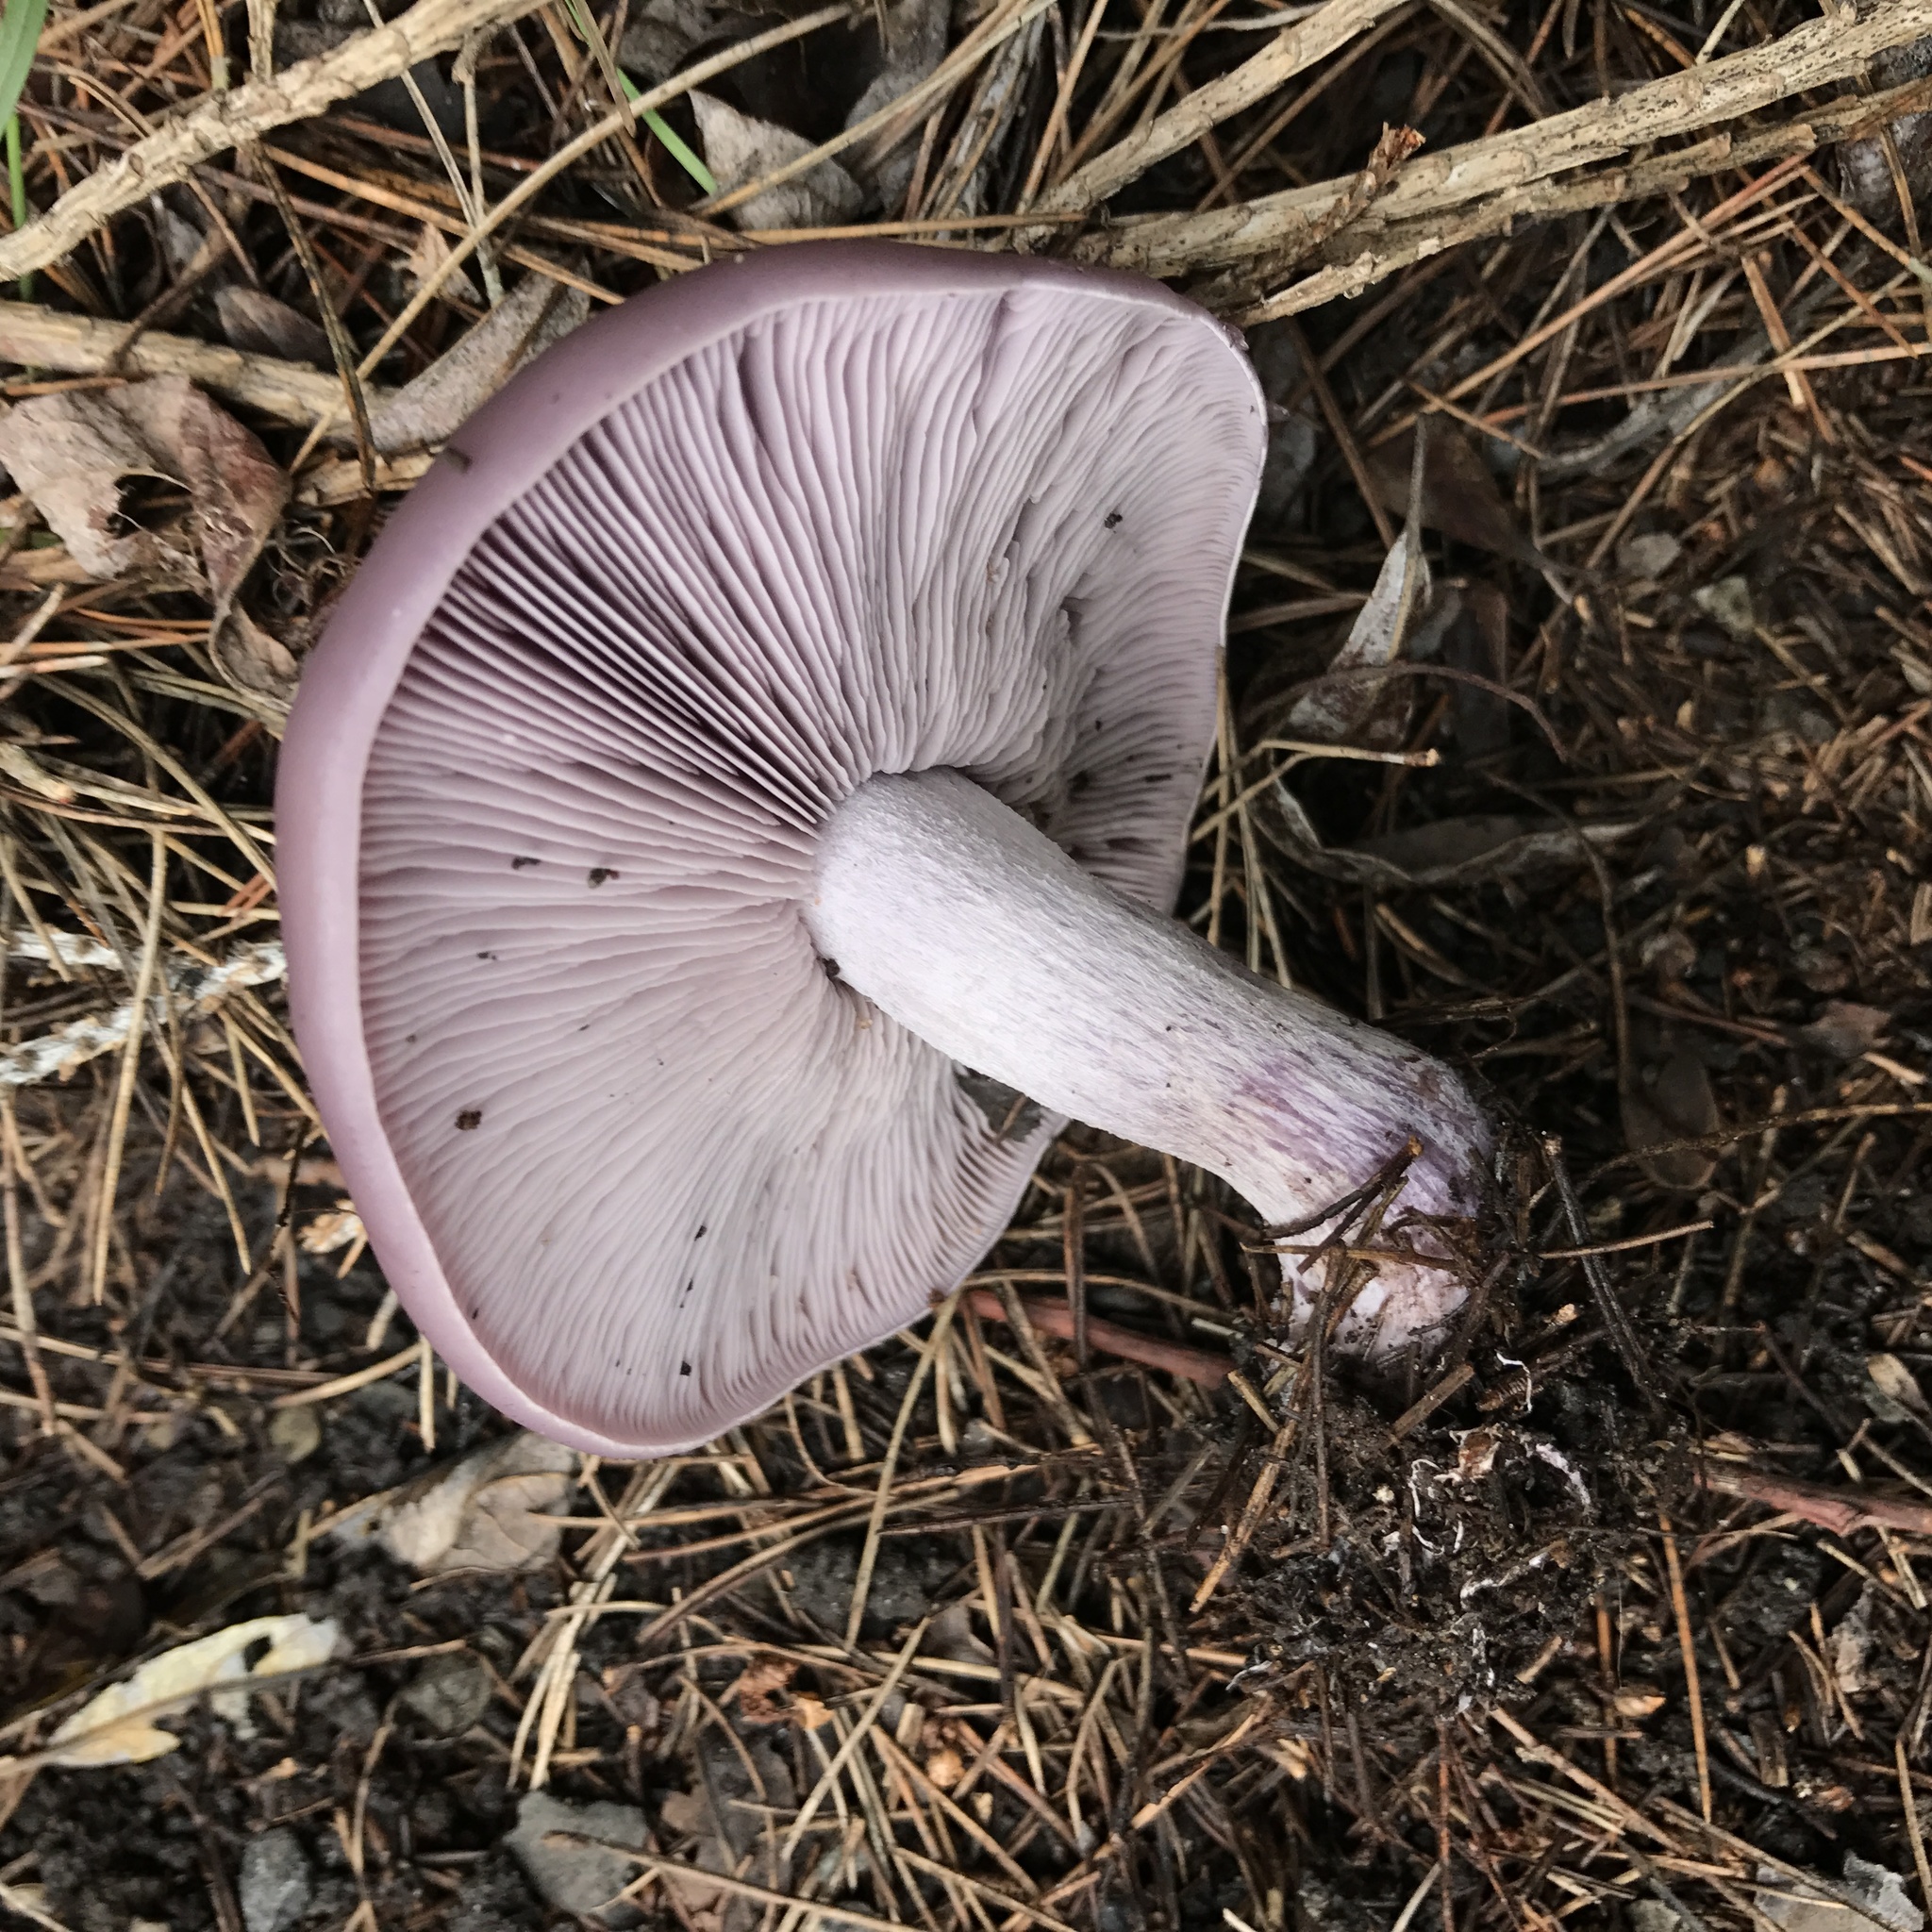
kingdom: Fungi
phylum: Basidiomycota
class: Agaricomycetes
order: Agaricales
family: Tricholomataceae
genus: Collybia
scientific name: Collybia
